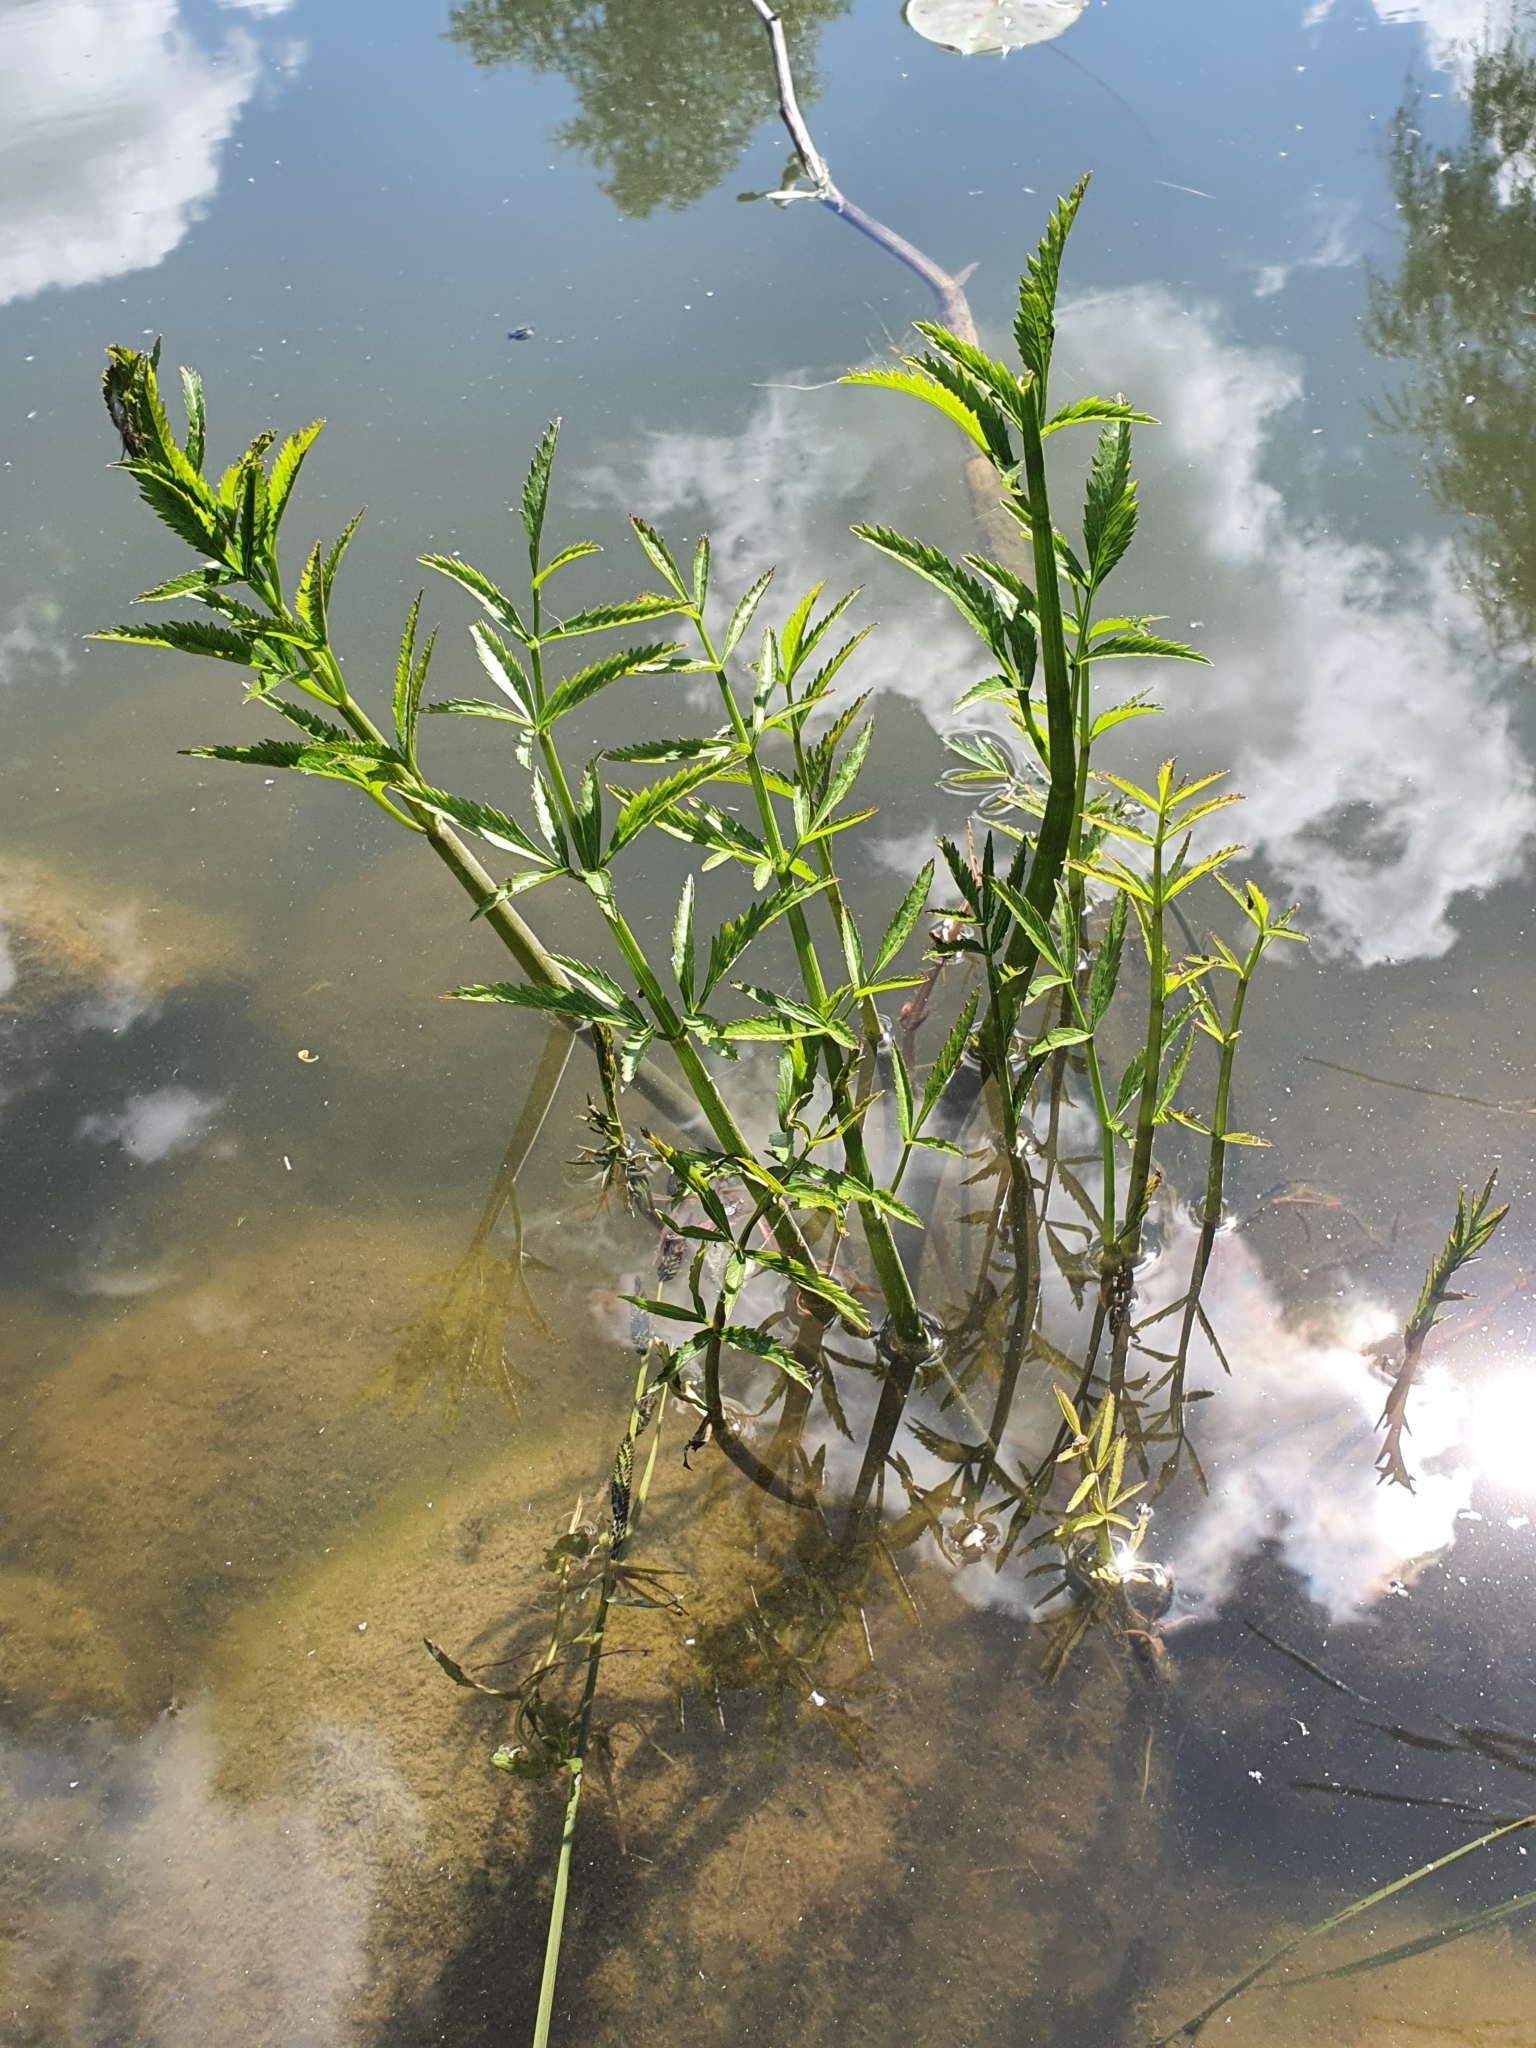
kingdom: Plantae
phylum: Tracheophyta
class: Magnoliopsida
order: Apiales
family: Apiaceae
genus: Cicuta
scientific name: Cicuta virosa
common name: Cowbane
